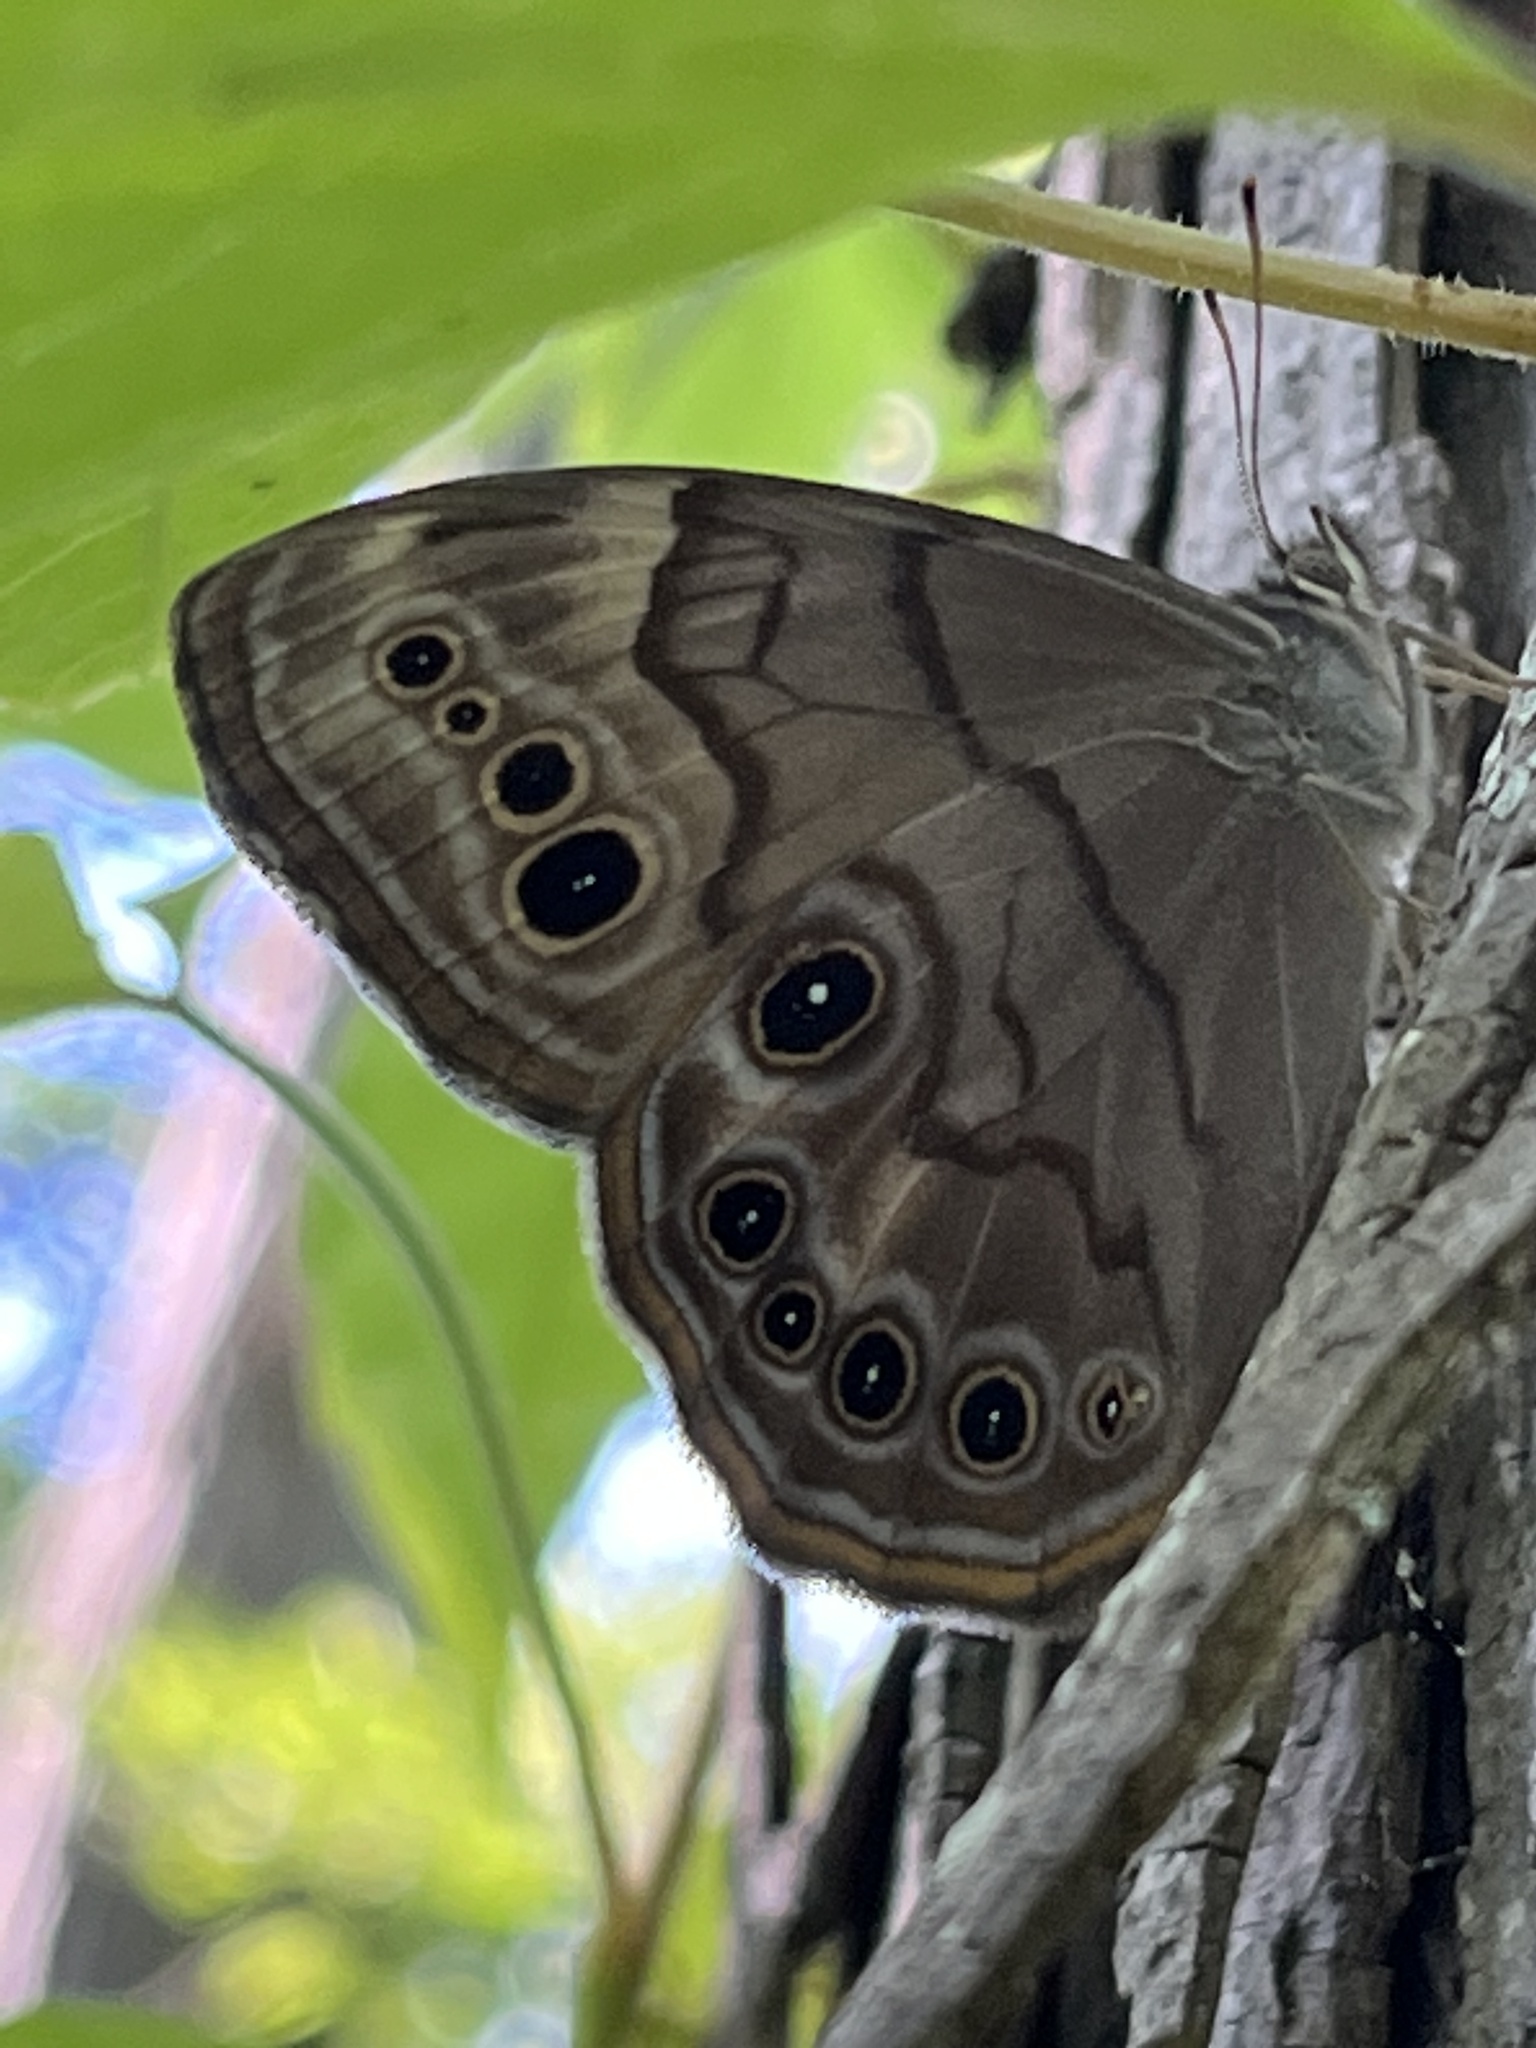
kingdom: Animalia
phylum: Arthropoda
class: Insecta
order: Lepidoptera
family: Nymphalidae
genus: Lethe
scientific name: Lethe anthedon
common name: Northern pearly-eye
